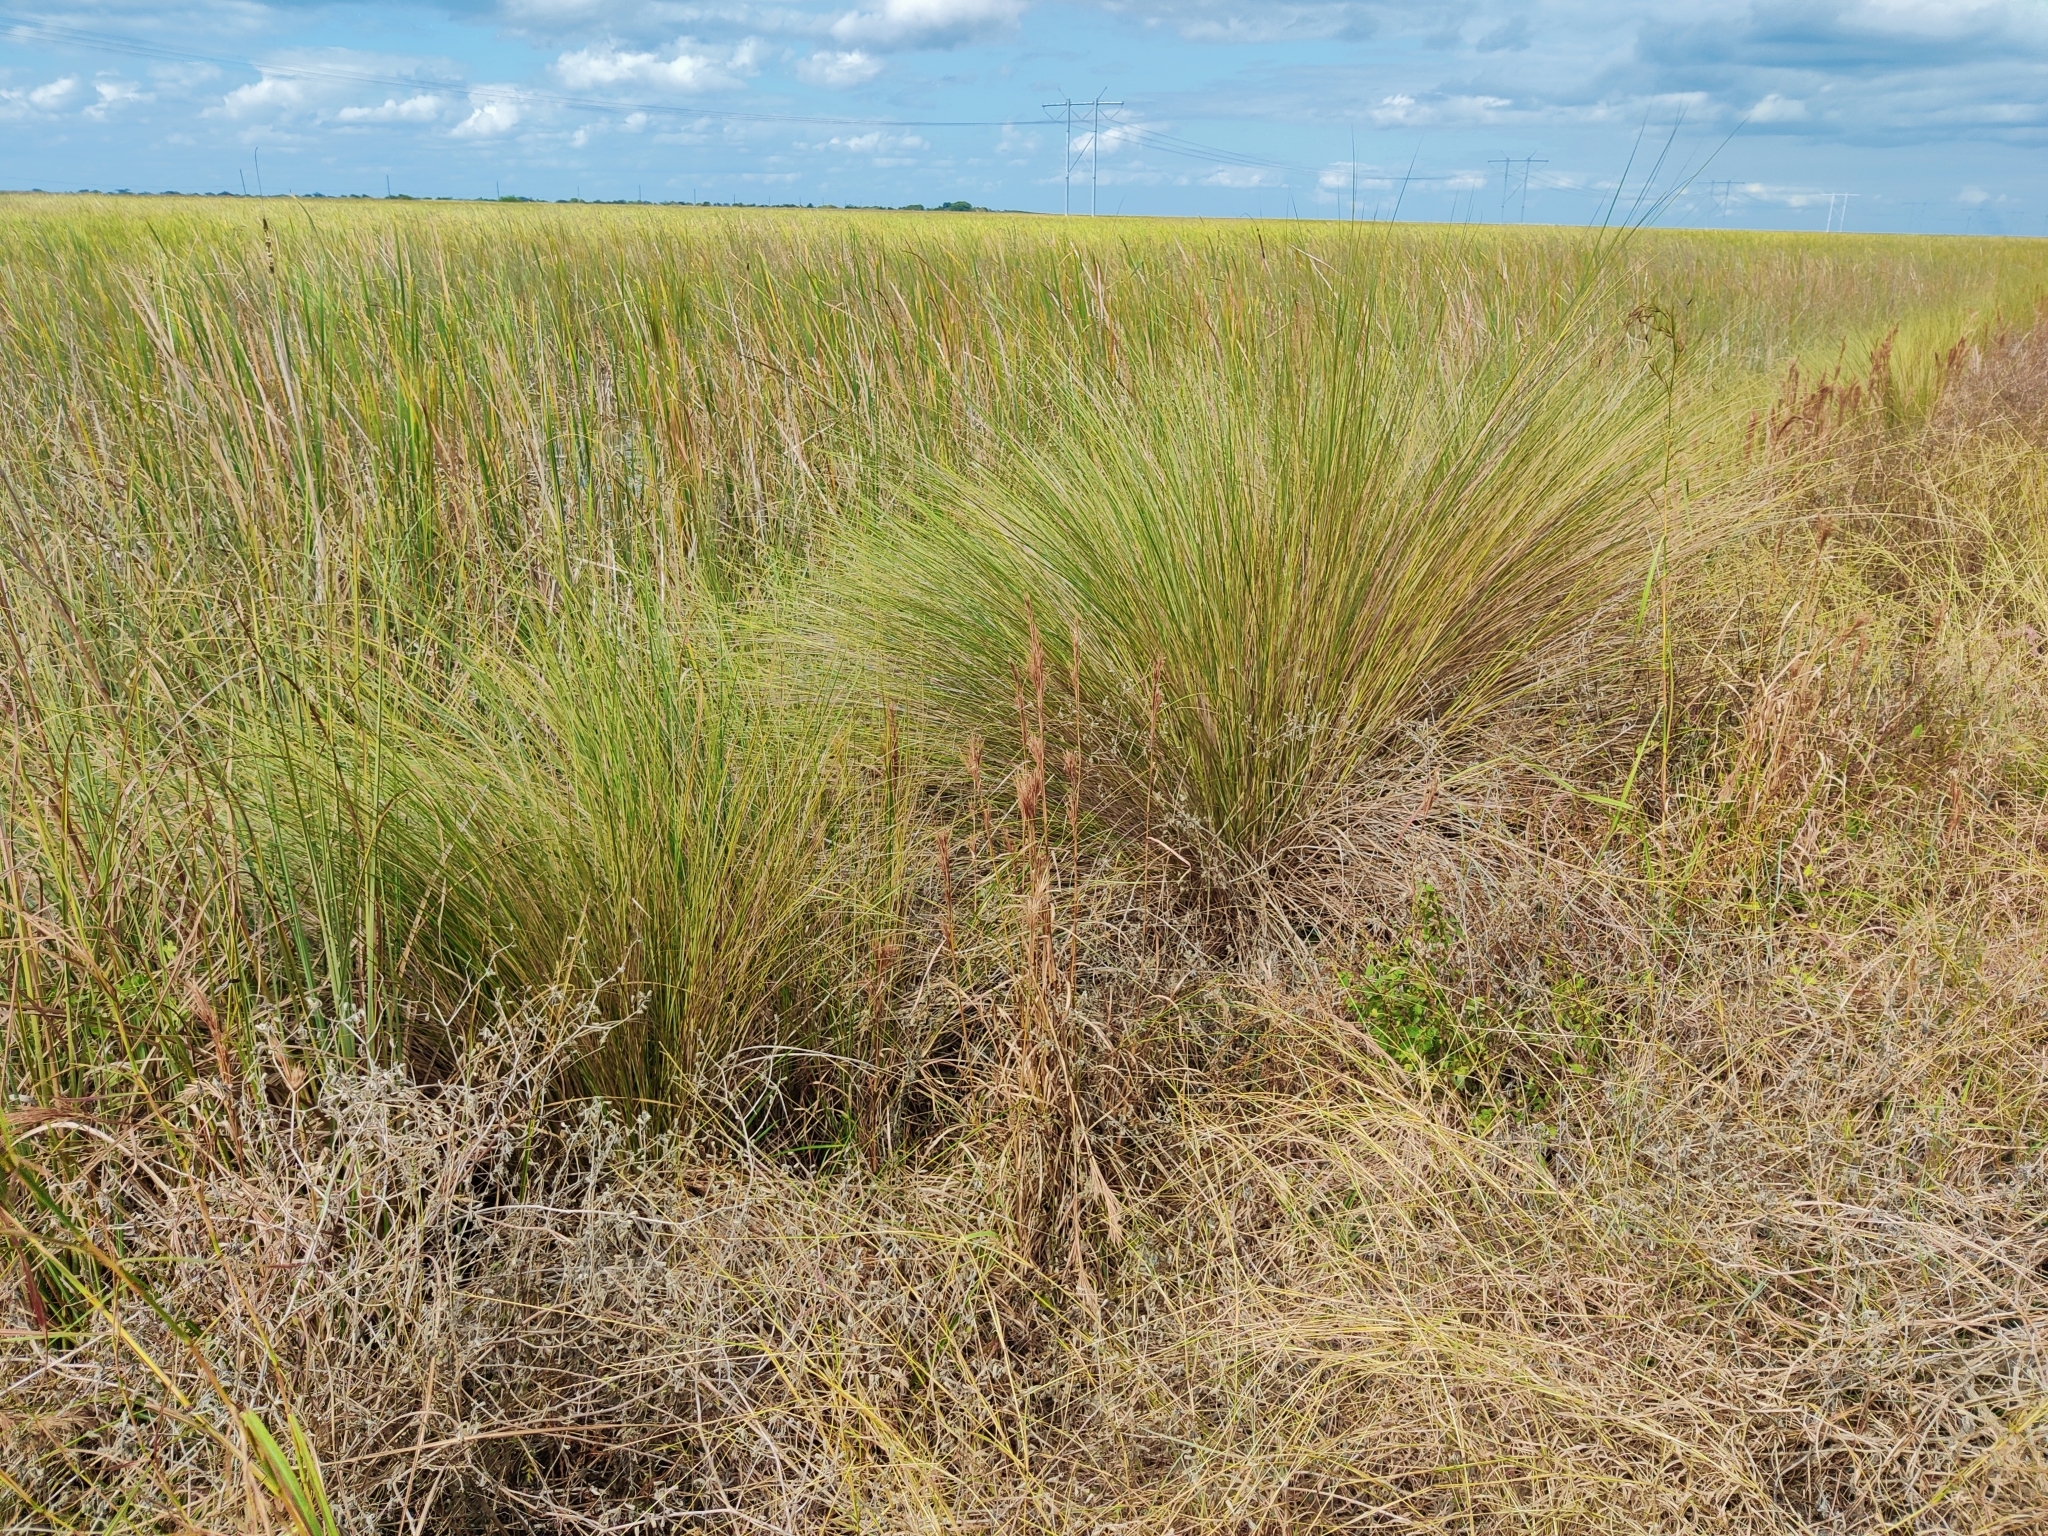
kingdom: Plantae
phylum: Tracheophyta
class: Liliopsida
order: Poales
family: Poaceae
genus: Sporobolus
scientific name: Sporobolus bakeri
